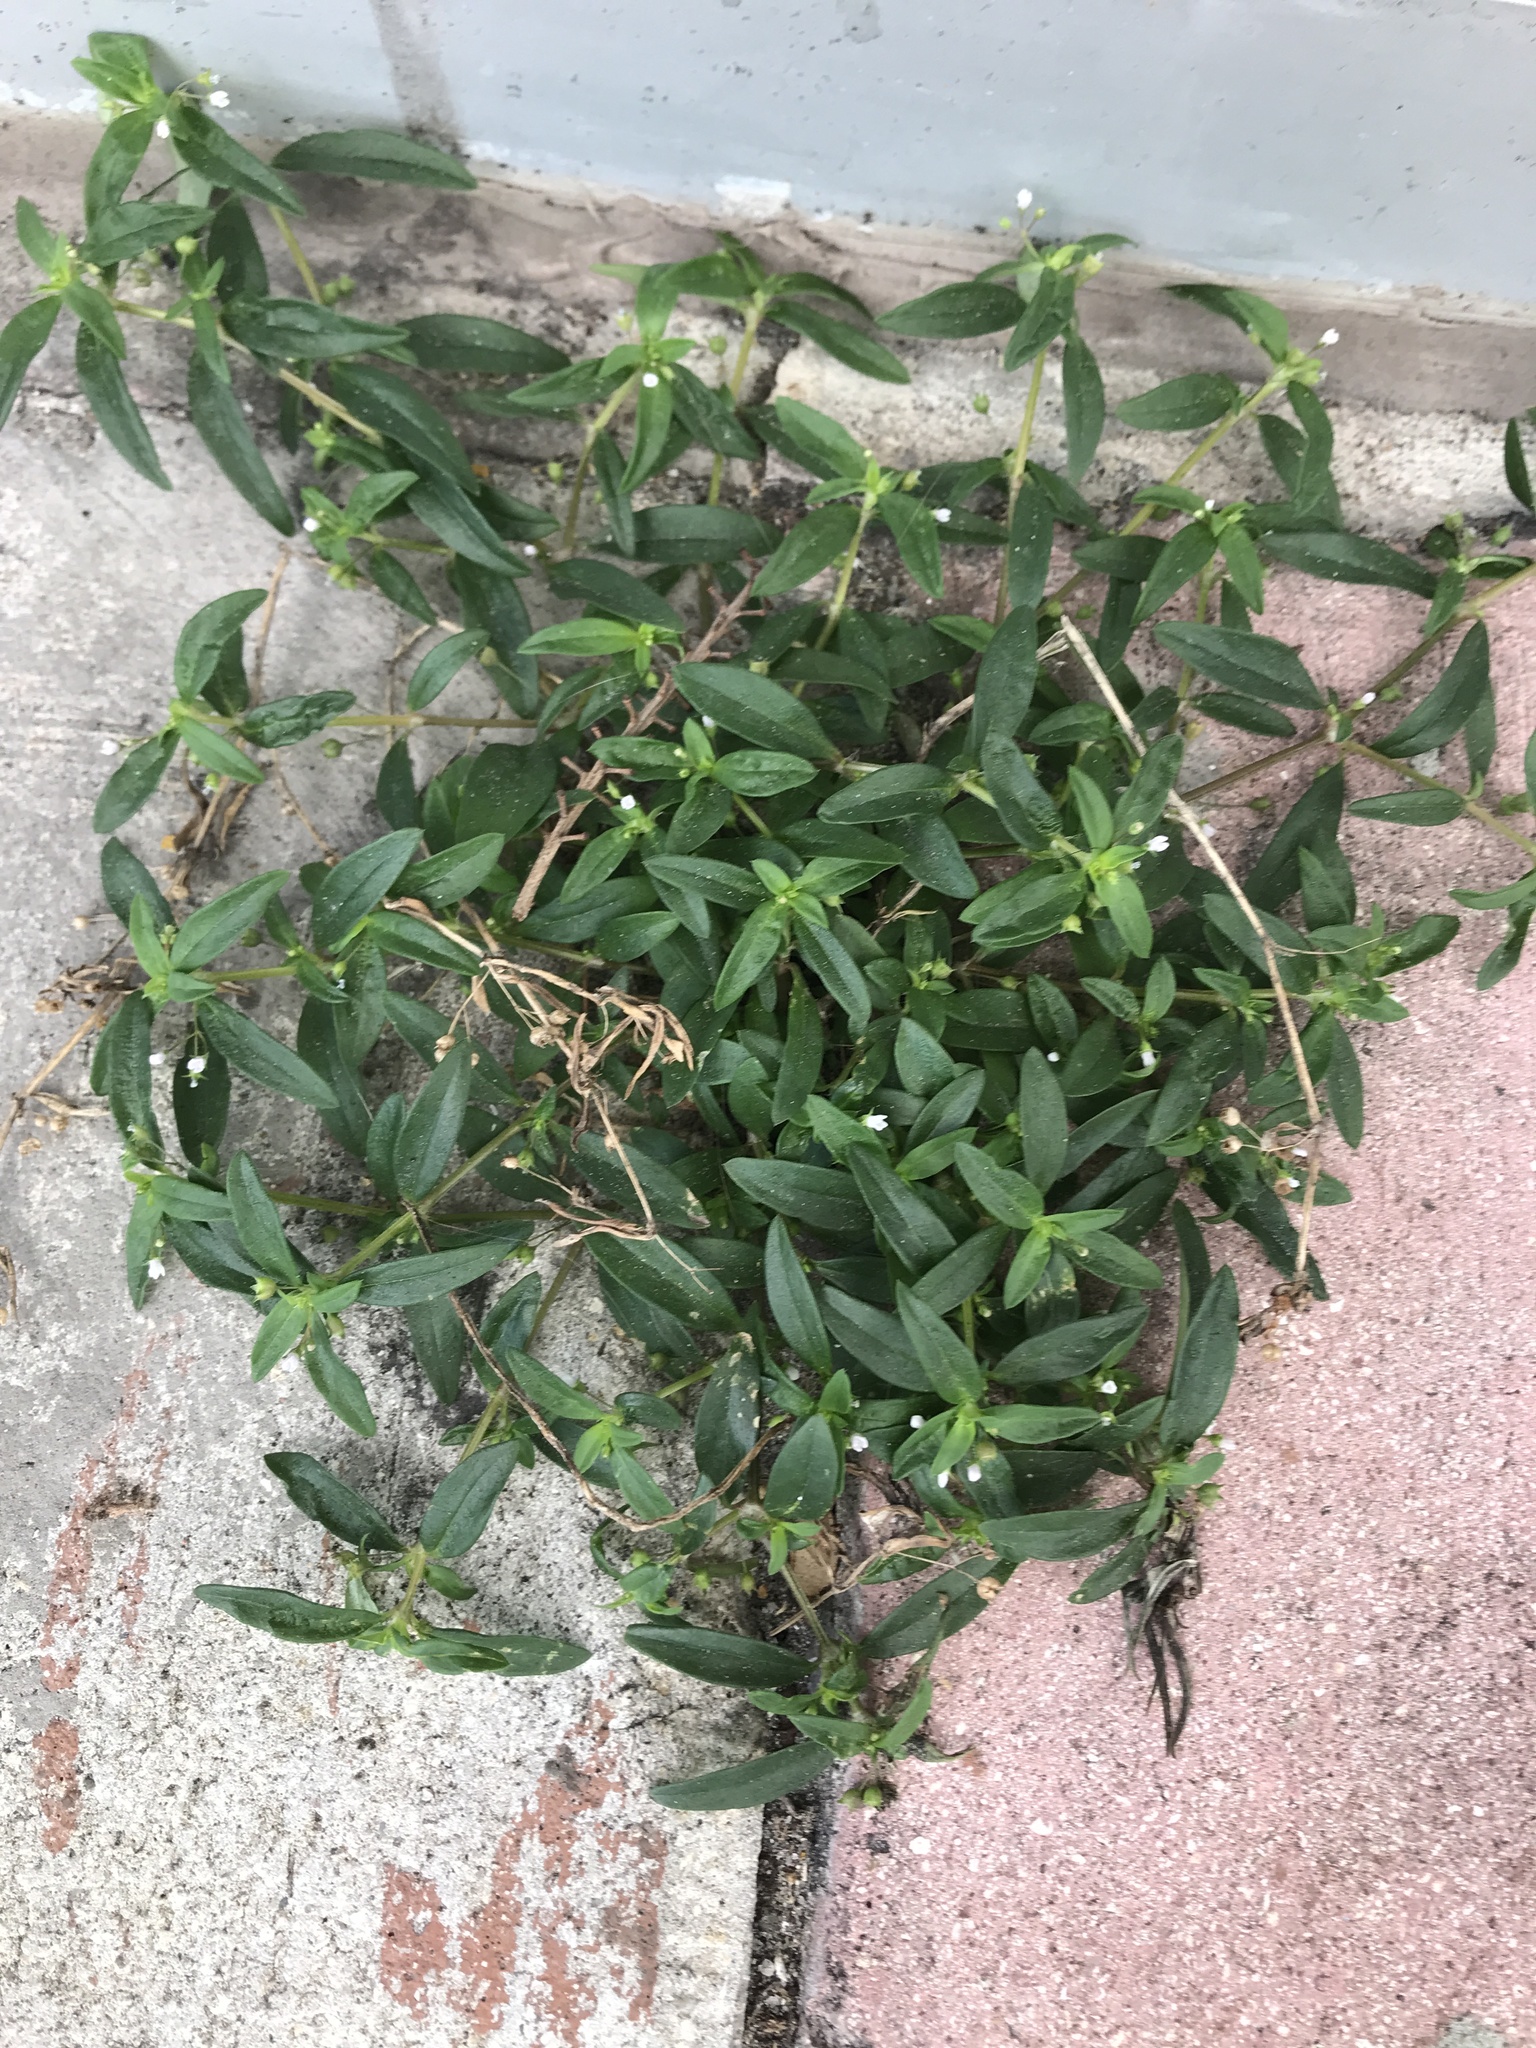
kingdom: Plantae
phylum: Tracheophyta
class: Magnoliopsida
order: Gentianales
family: Rubiaceae
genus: Oldenlandia
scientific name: Oldenlandia corymbosa
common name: Flat-top mille graines
